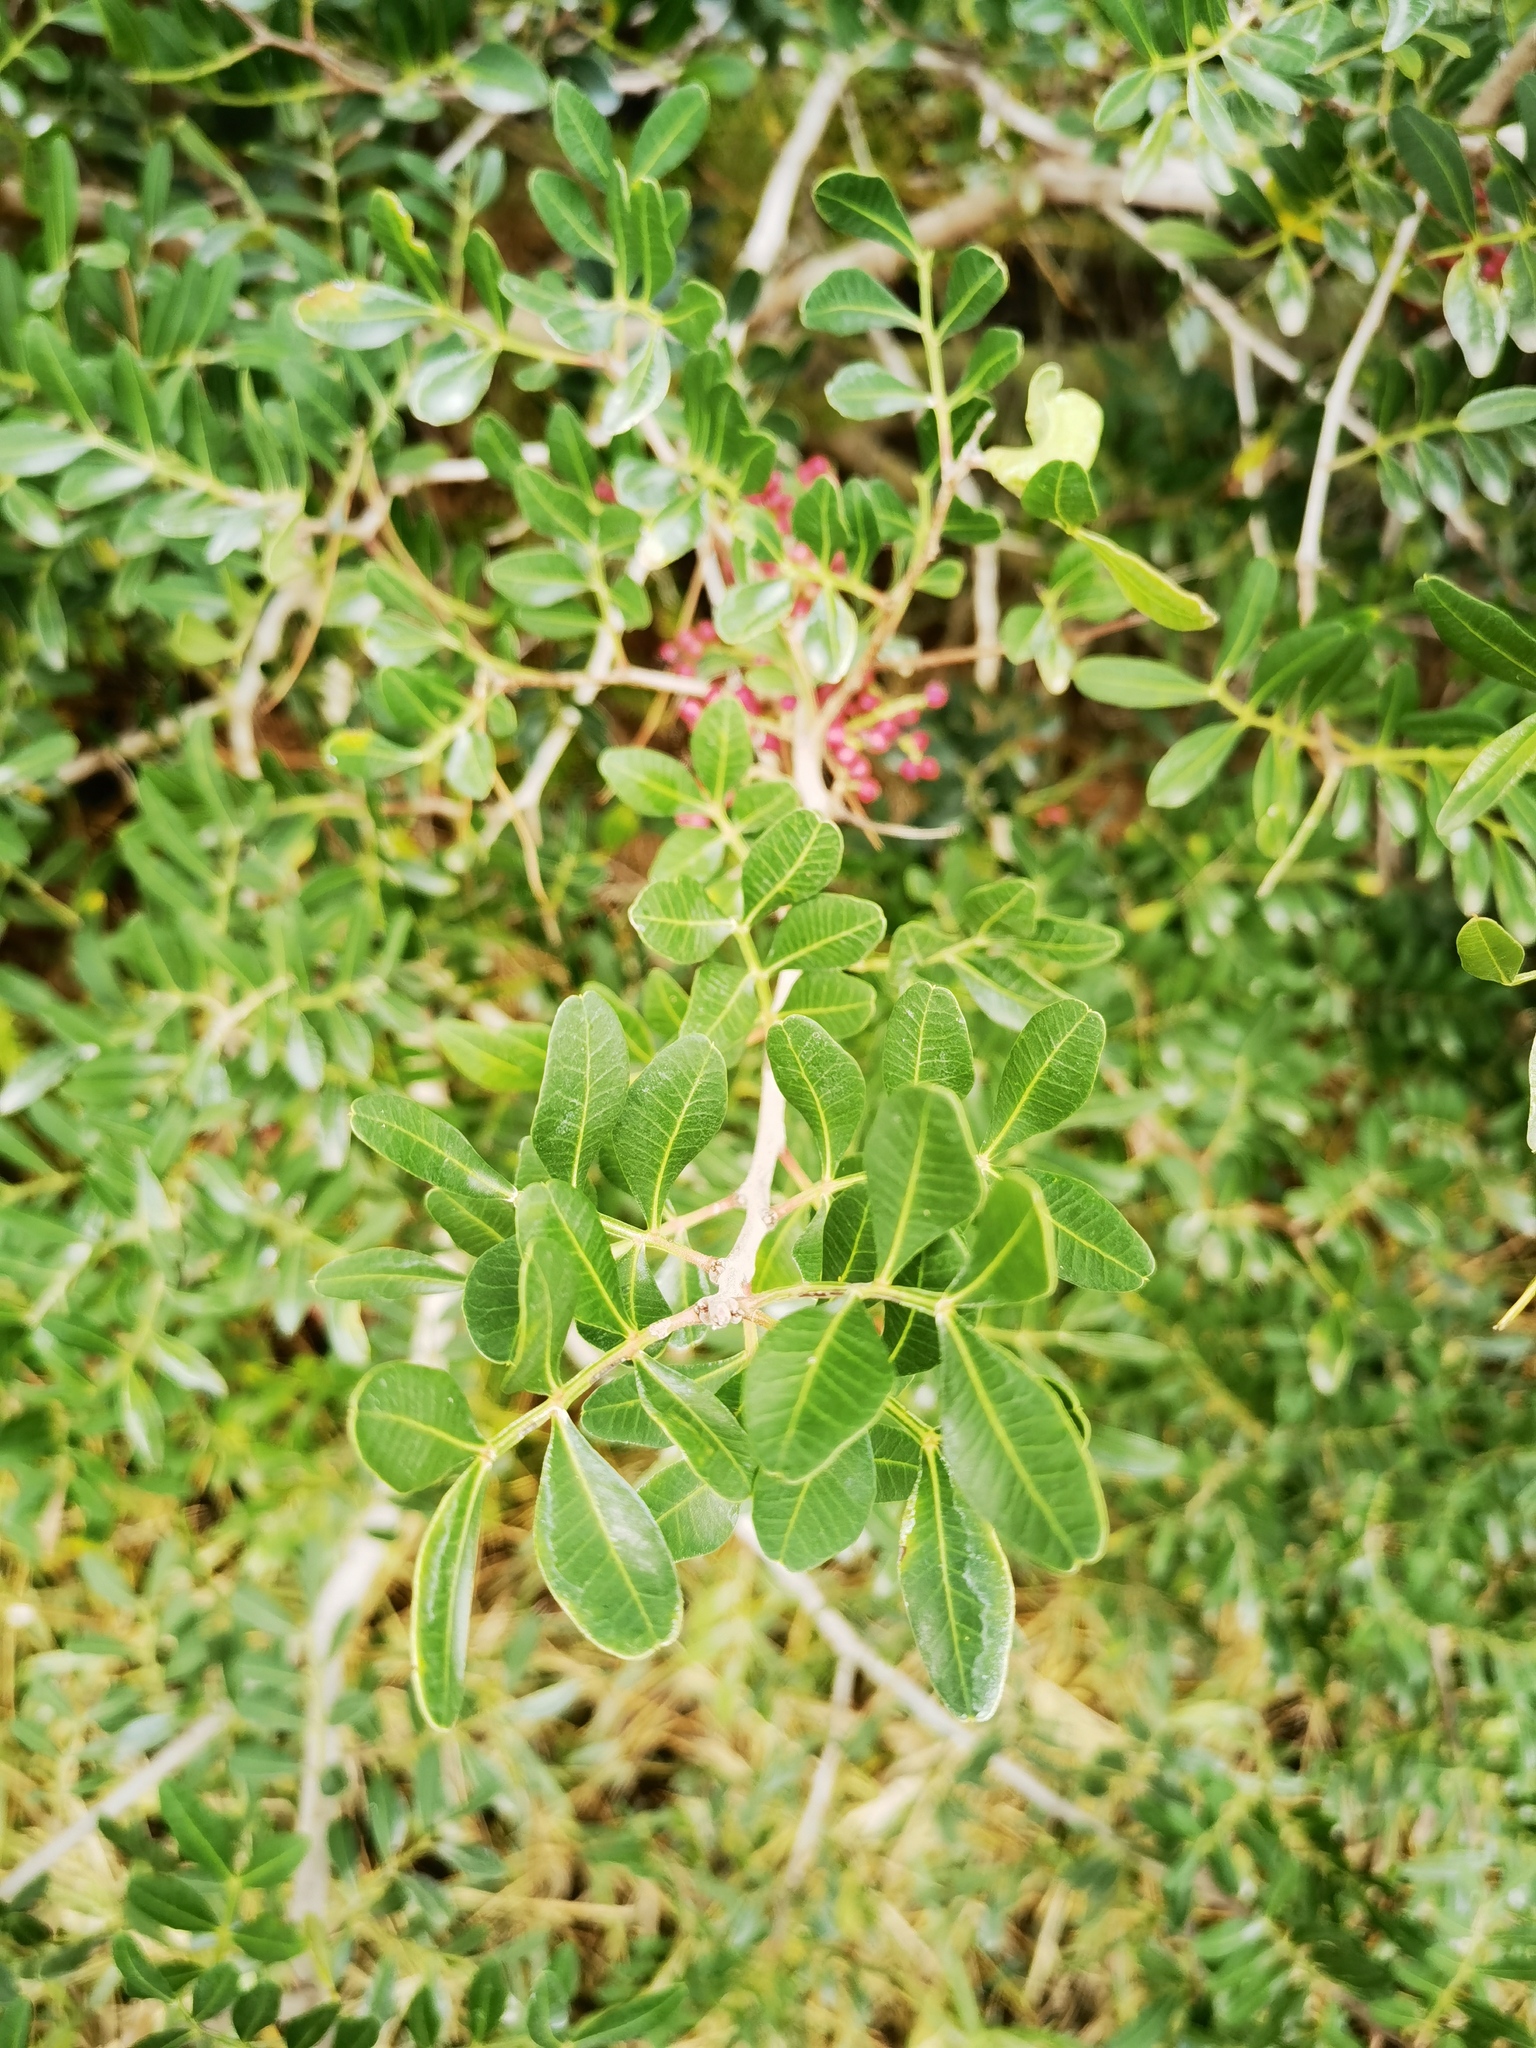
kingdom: Plantae
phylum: Tracheophyta
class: Magnoliopsida
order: Sapindales
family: Anacardiaceae
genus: Pistacia
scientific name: Pistacia lentiscus
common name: Lentisk
